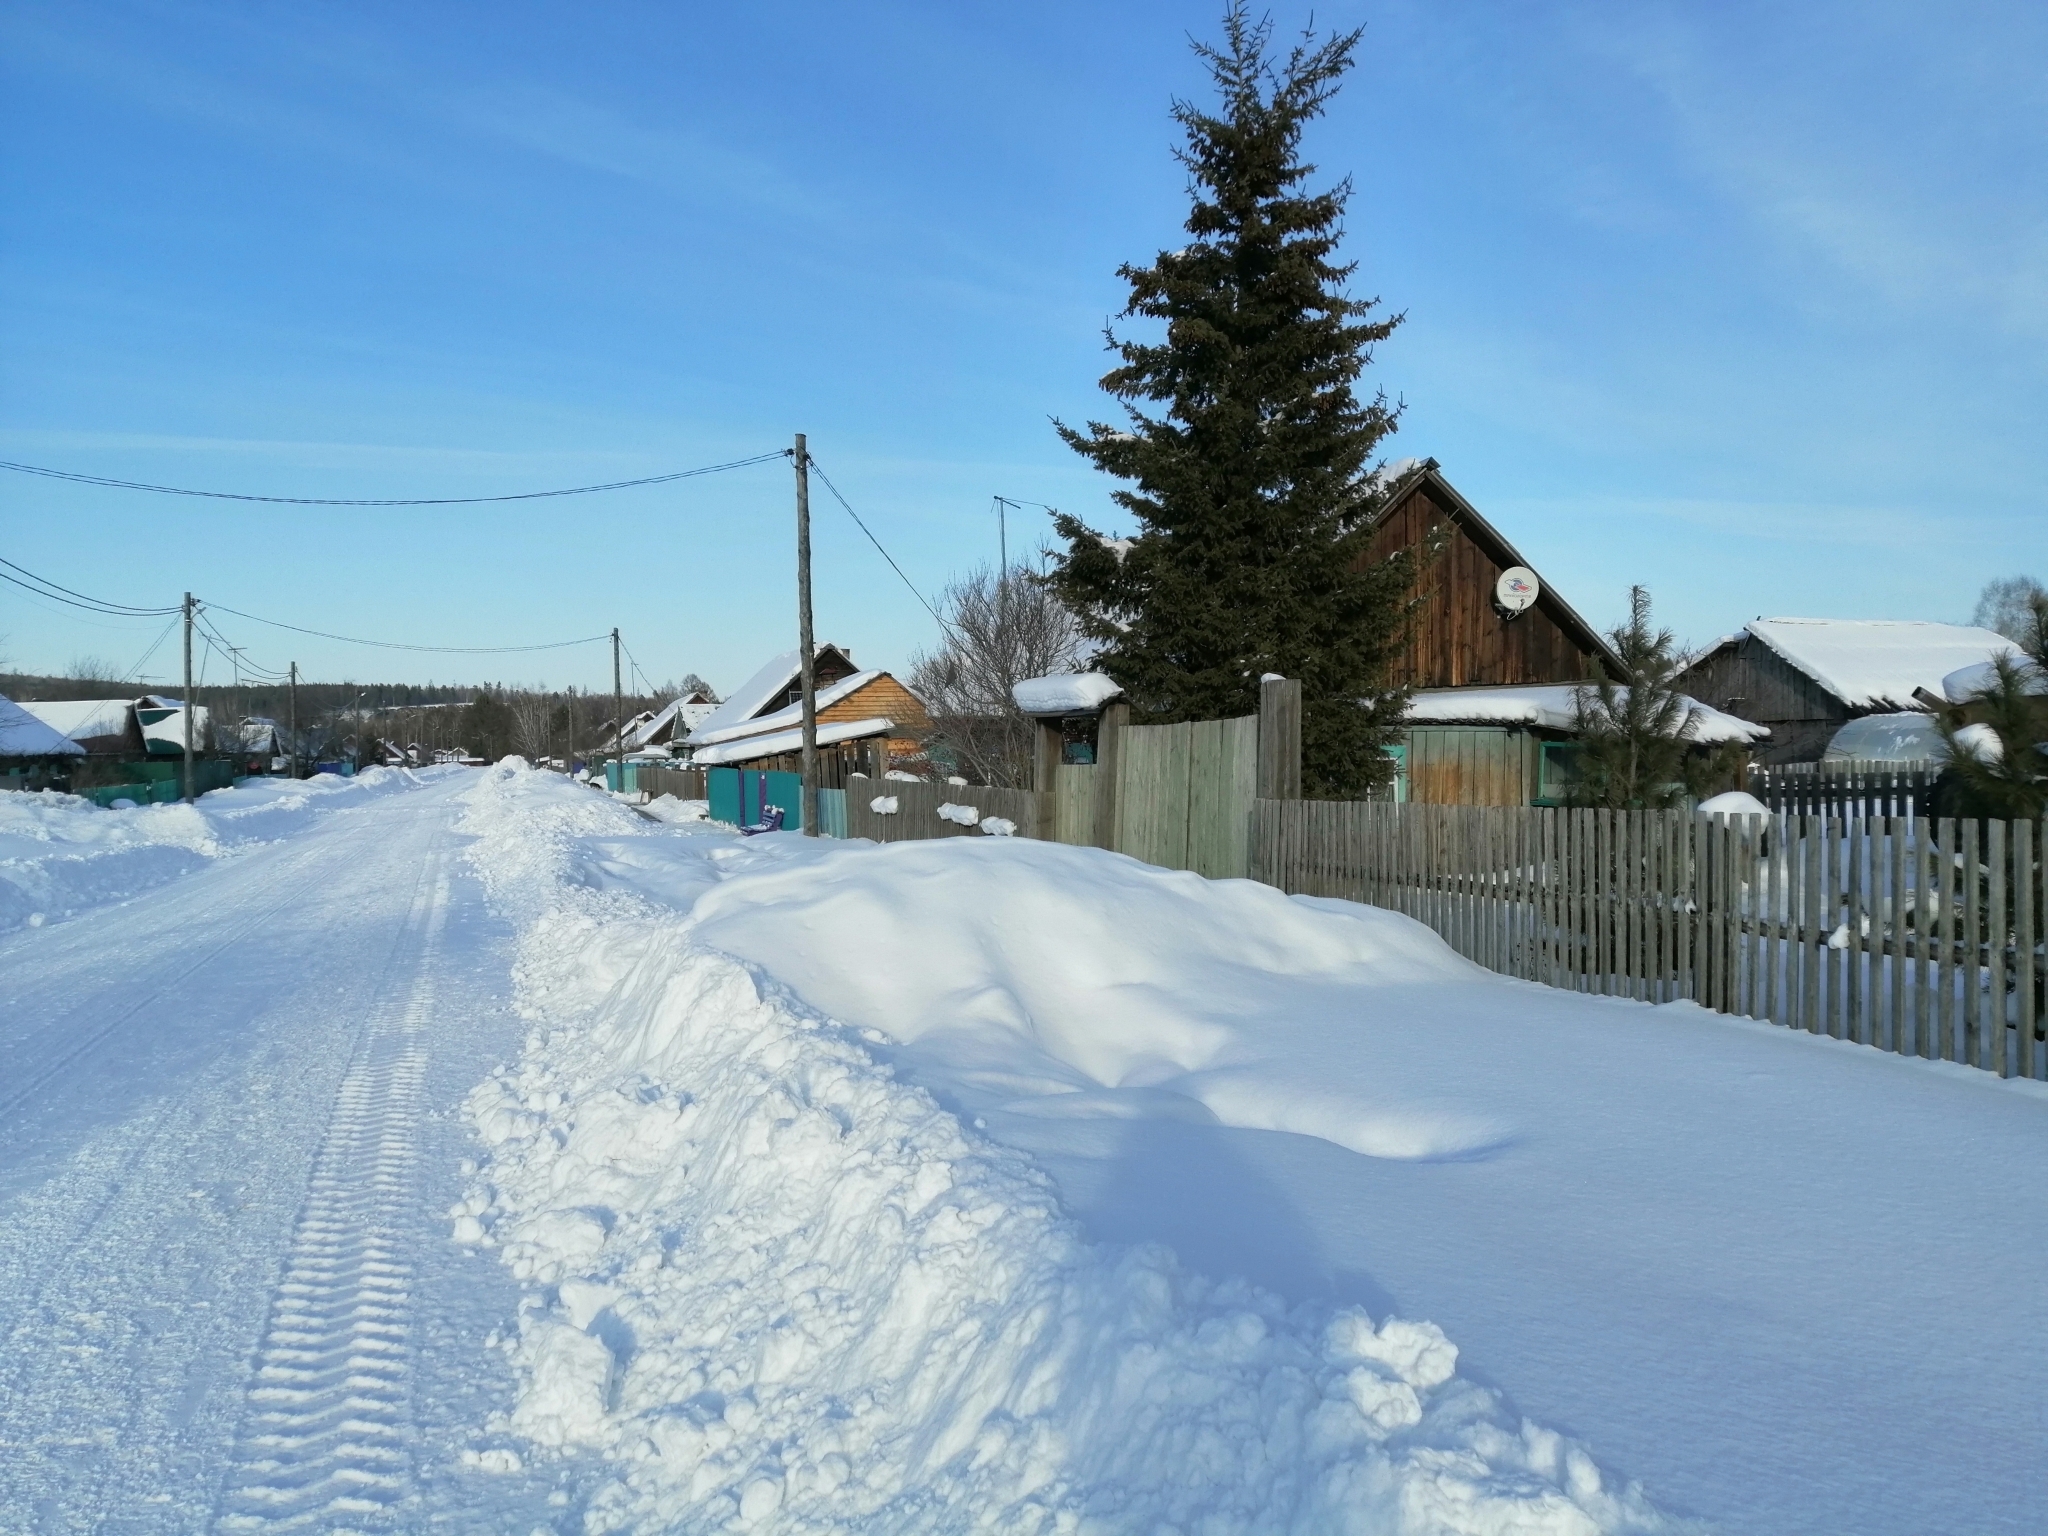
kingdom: Plantae
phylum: Tracheophyta
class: Pinopsida
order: Pinales
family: Pinaceae
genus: Picea
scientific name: Picea obovata
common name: Siberian spruce
